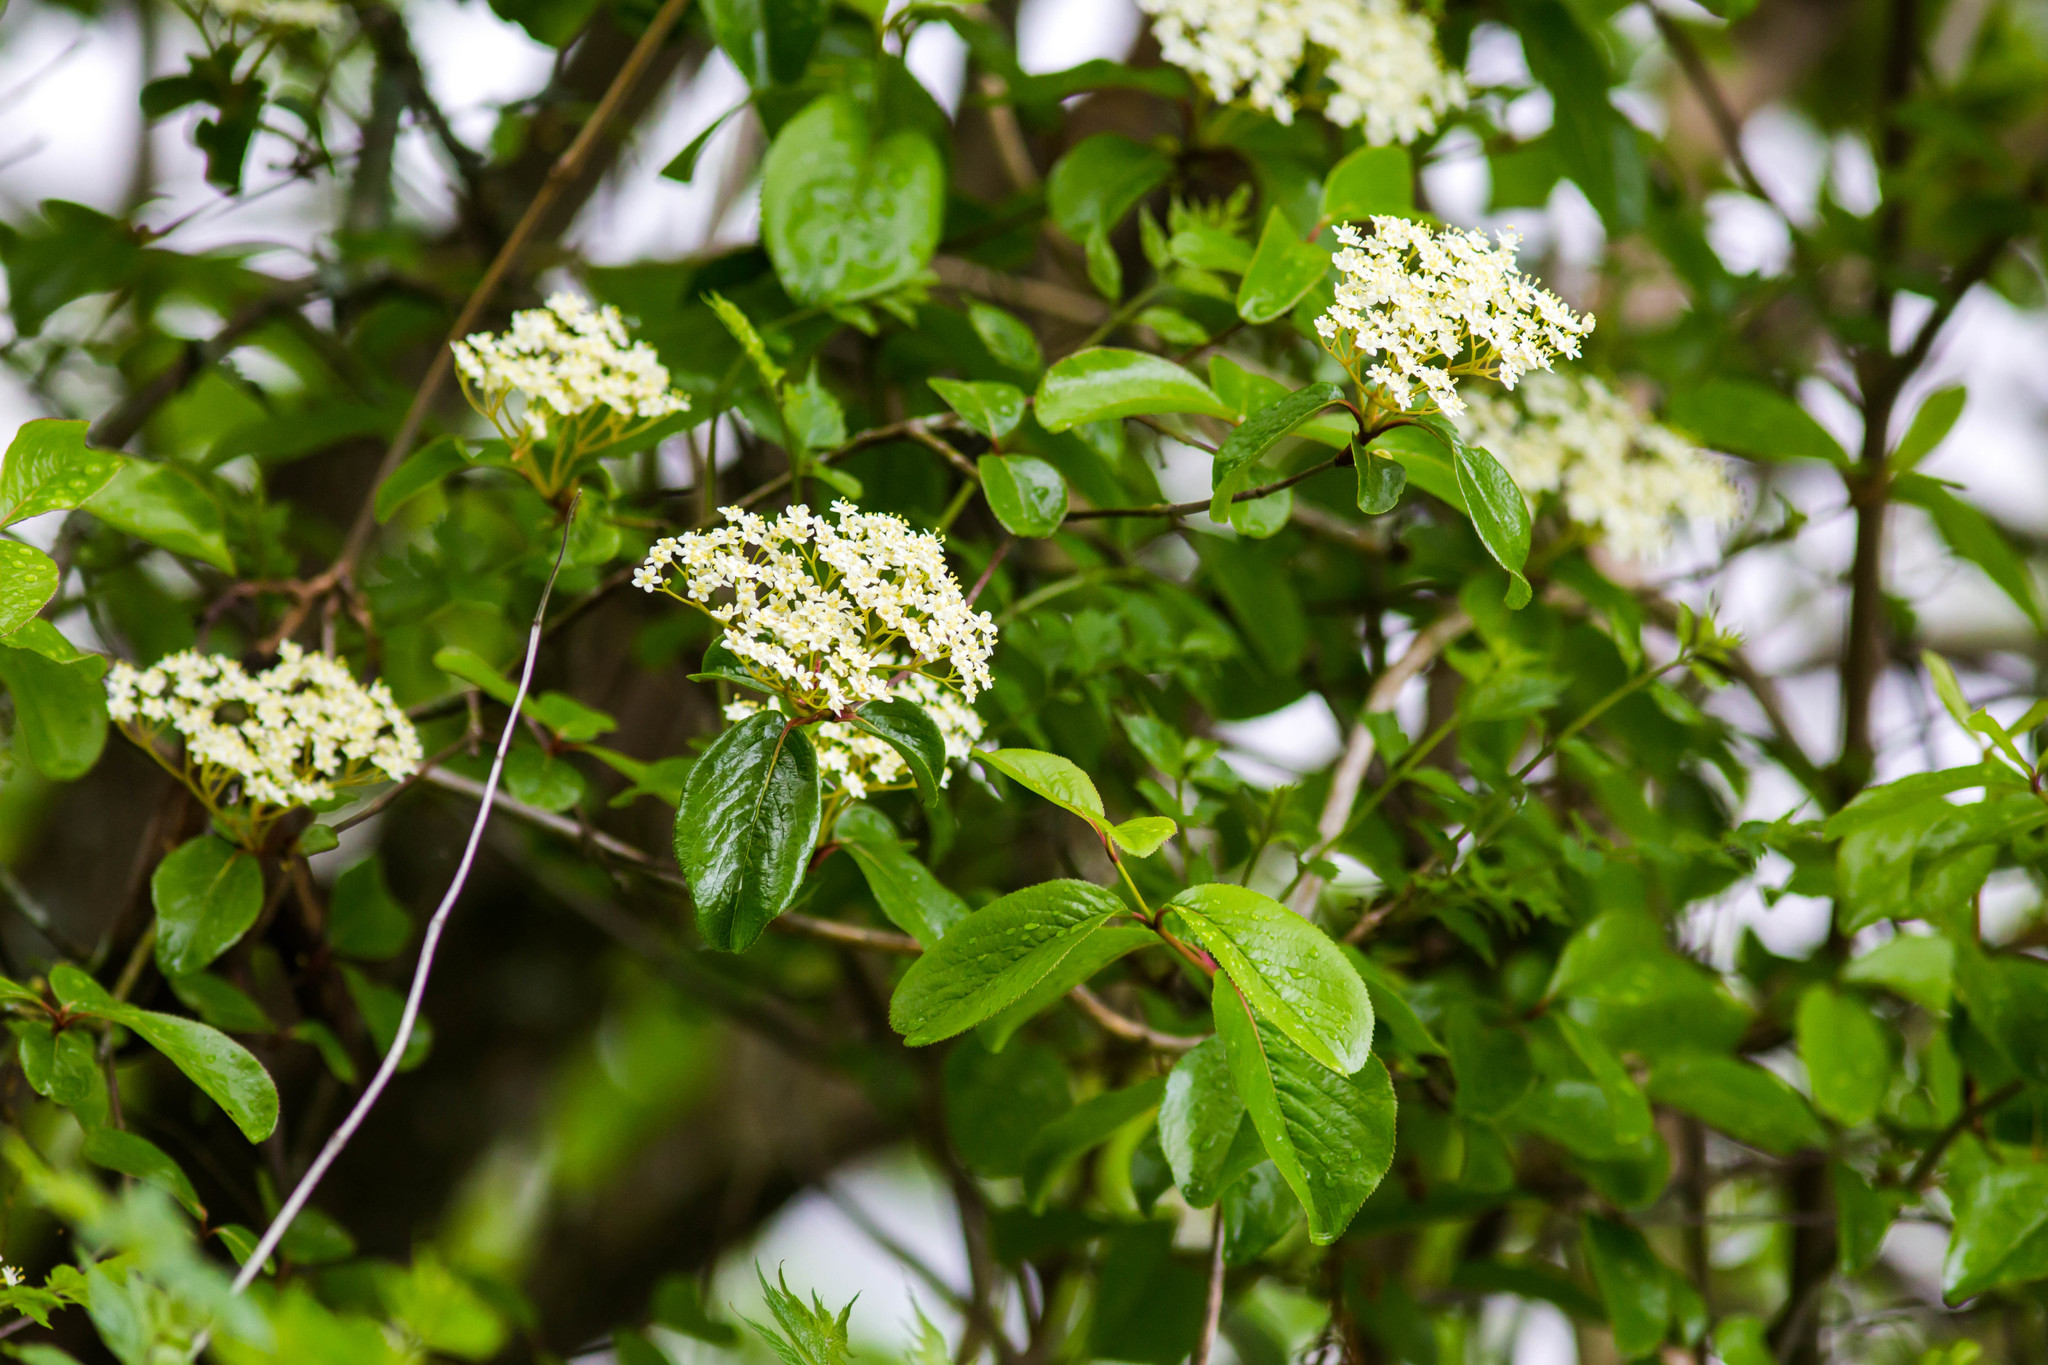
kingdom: Plantae
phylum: Tracheophyta
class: Magnoliopsida
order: Dipsacales
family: Viburnaceae
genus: Viburnum
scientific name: Viburnum rufidulum
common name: Blue haw
